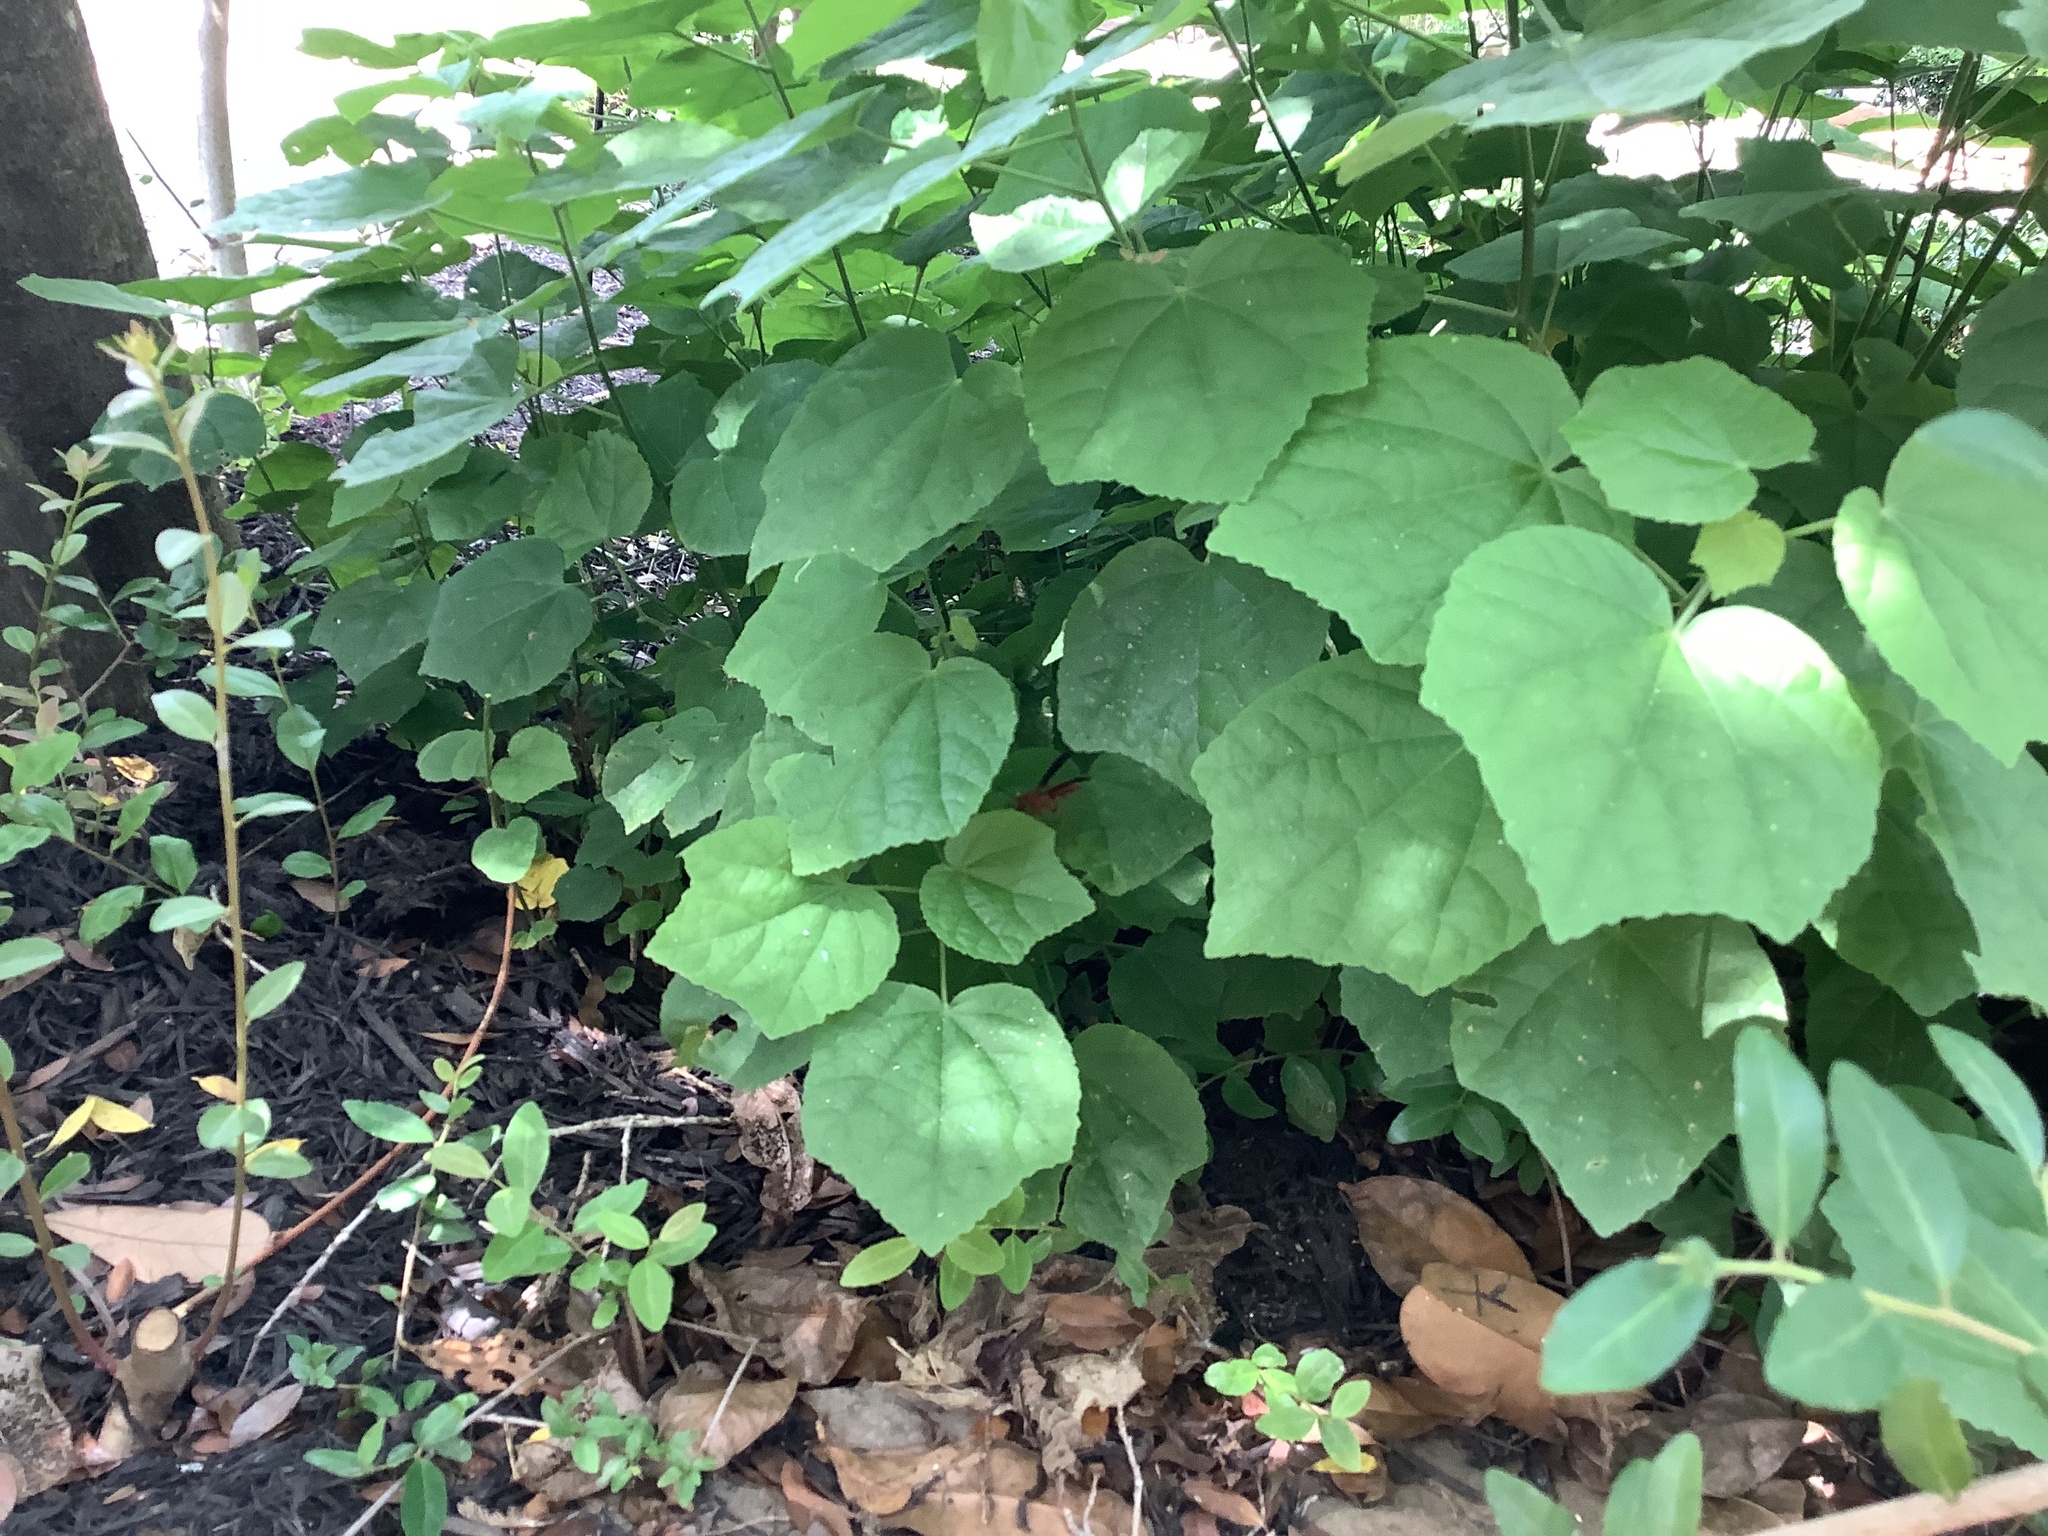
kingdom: Animalia
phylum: Arthropoda
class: Insecta
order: Hymenoptera
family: Vespidae
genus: Fuscopolistes
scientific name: Fuscopolistes
